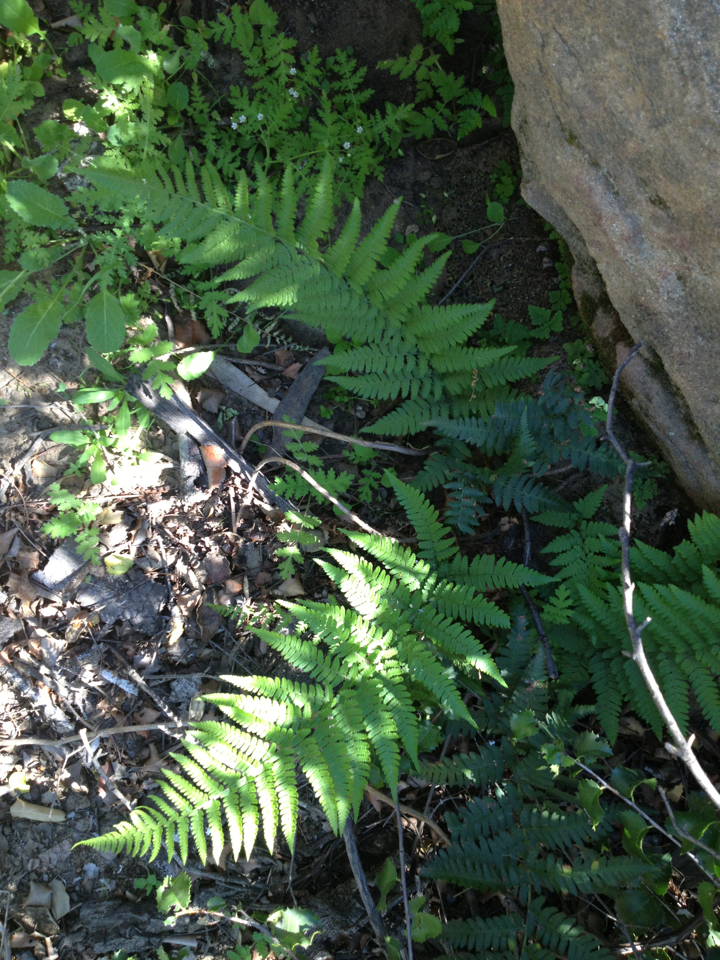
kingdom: Plantae
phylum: Tracheophyta
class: Polypodiopsida
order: Polypodiales
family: Dryopteridaceae
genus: Dryopteris
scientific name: Dryopteris arguta
